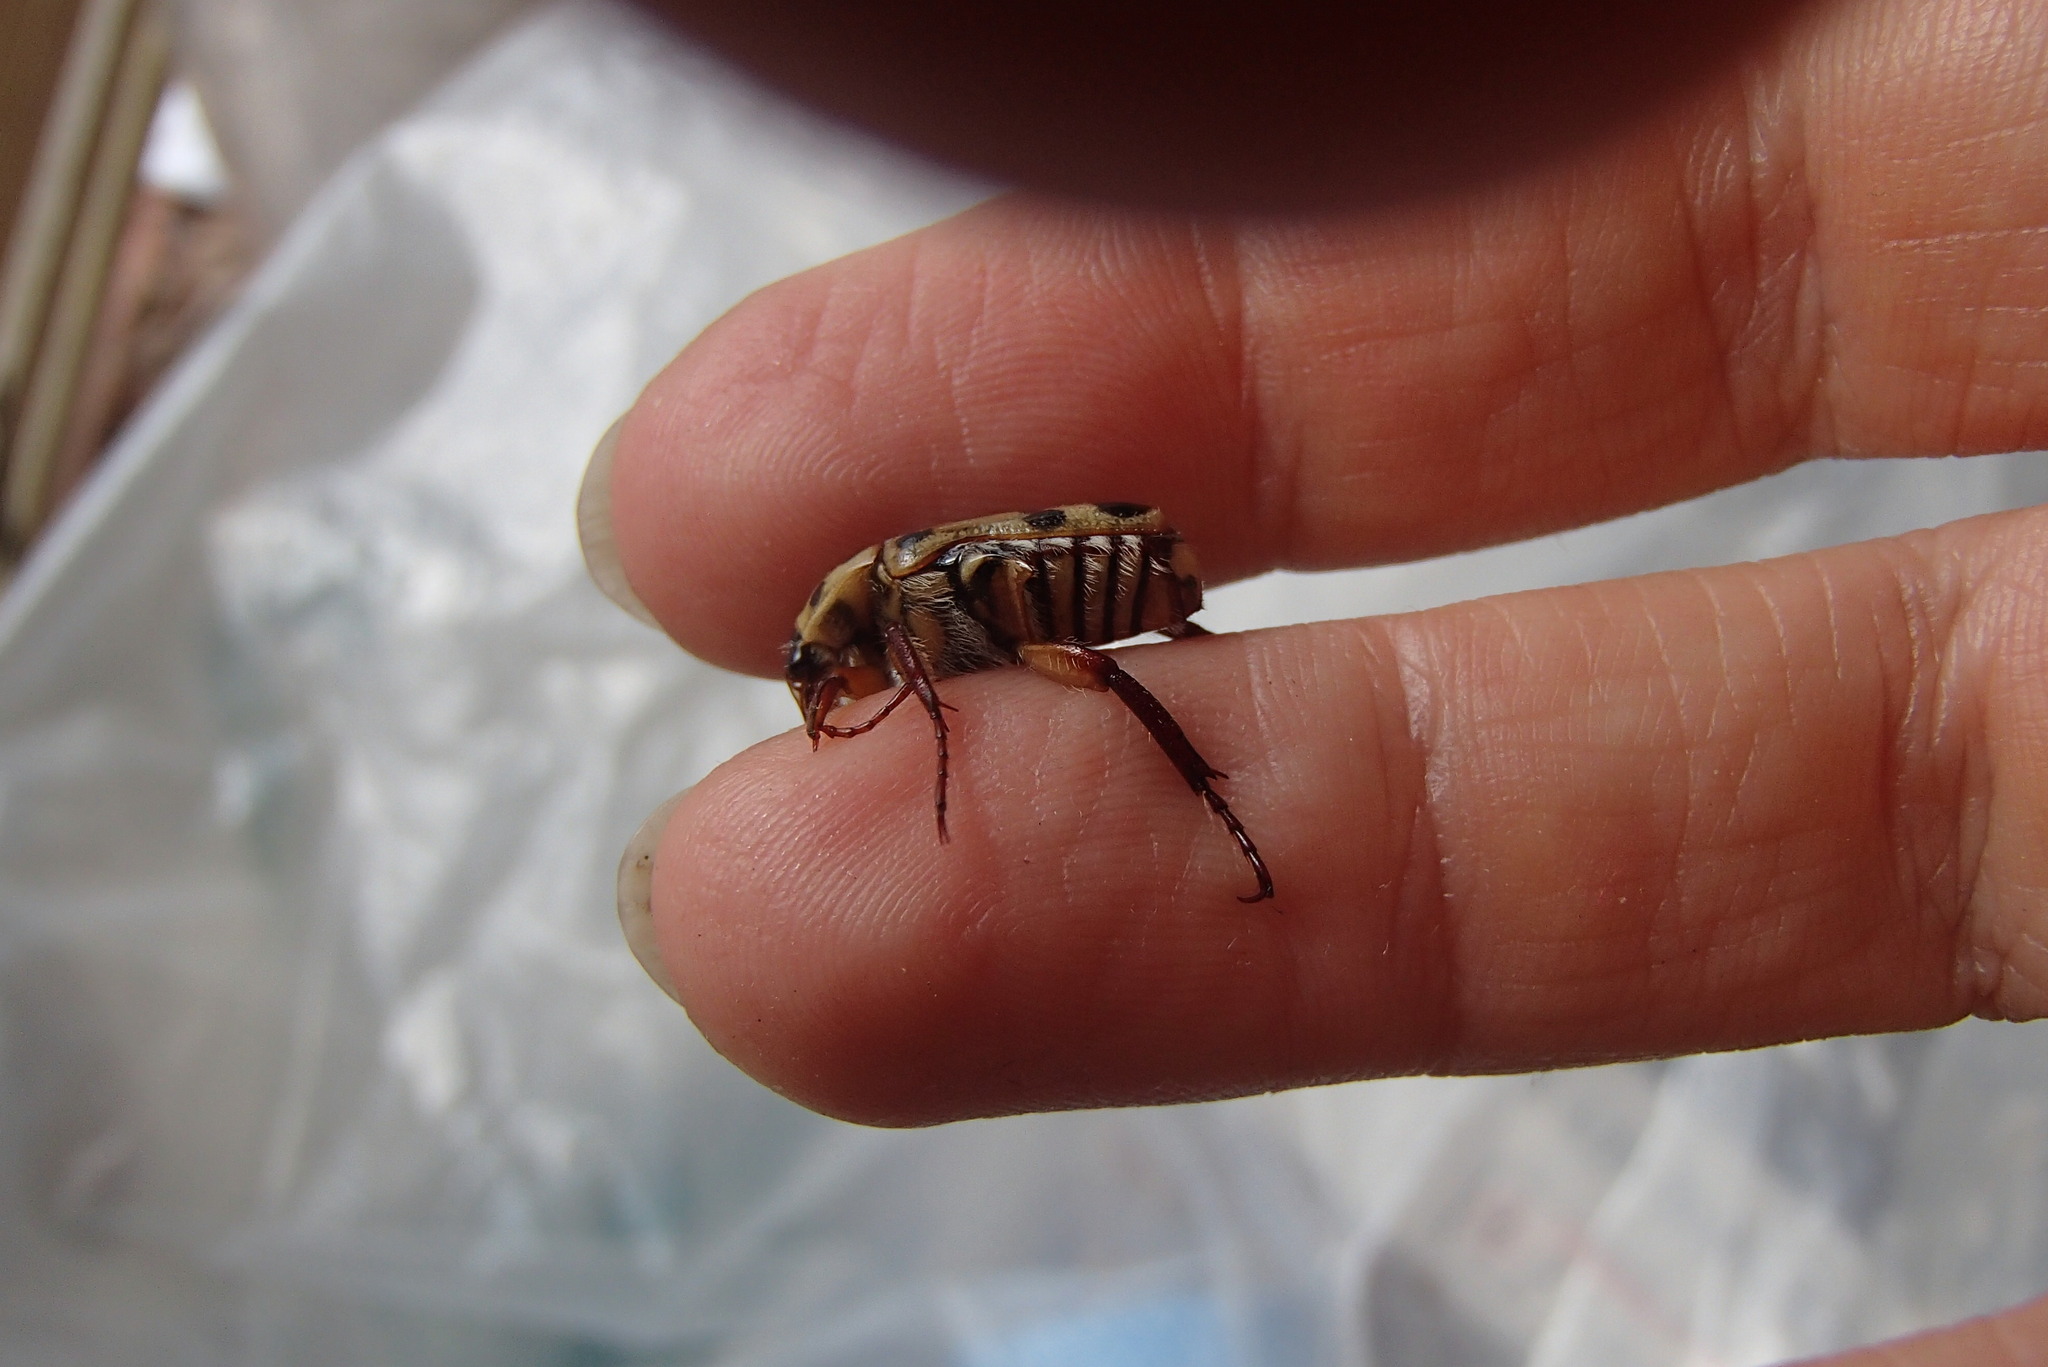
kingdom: Animalia
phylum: Arthropoda
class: Insecta
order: Coleoptera
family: Scarabaeidae
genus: Neorrhina
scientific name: Neorrhina punctatum
